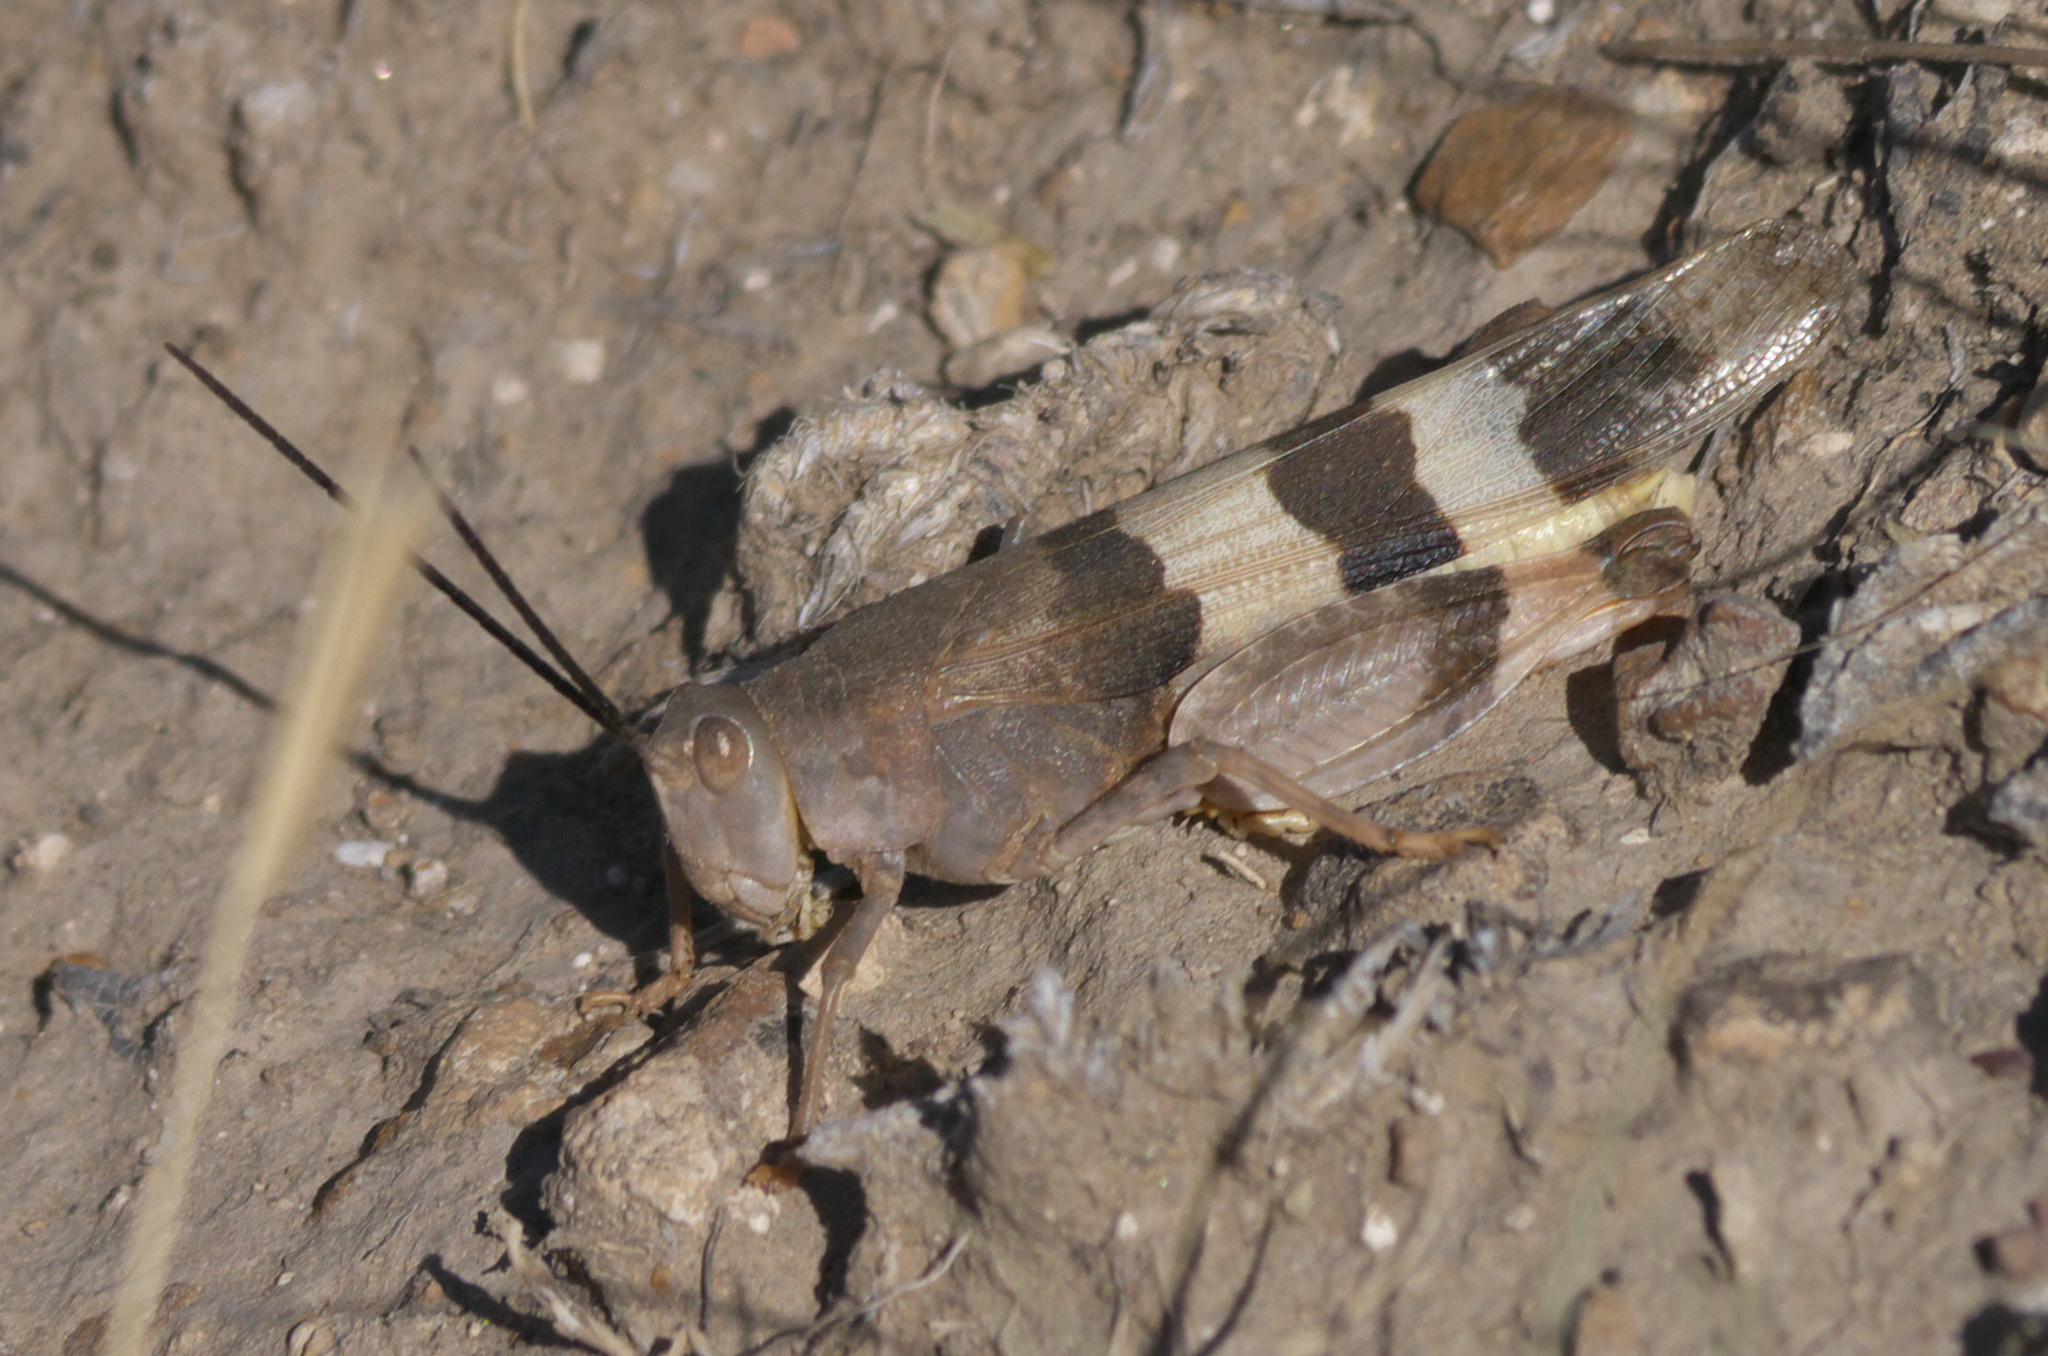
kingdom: Animalia
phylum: Arthropoda
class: Insecta
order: Orthoptera
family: Acrididae
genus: Hadrotettix
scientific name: Hadrotettix trifasciatus
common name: Threebanded grasshopper
